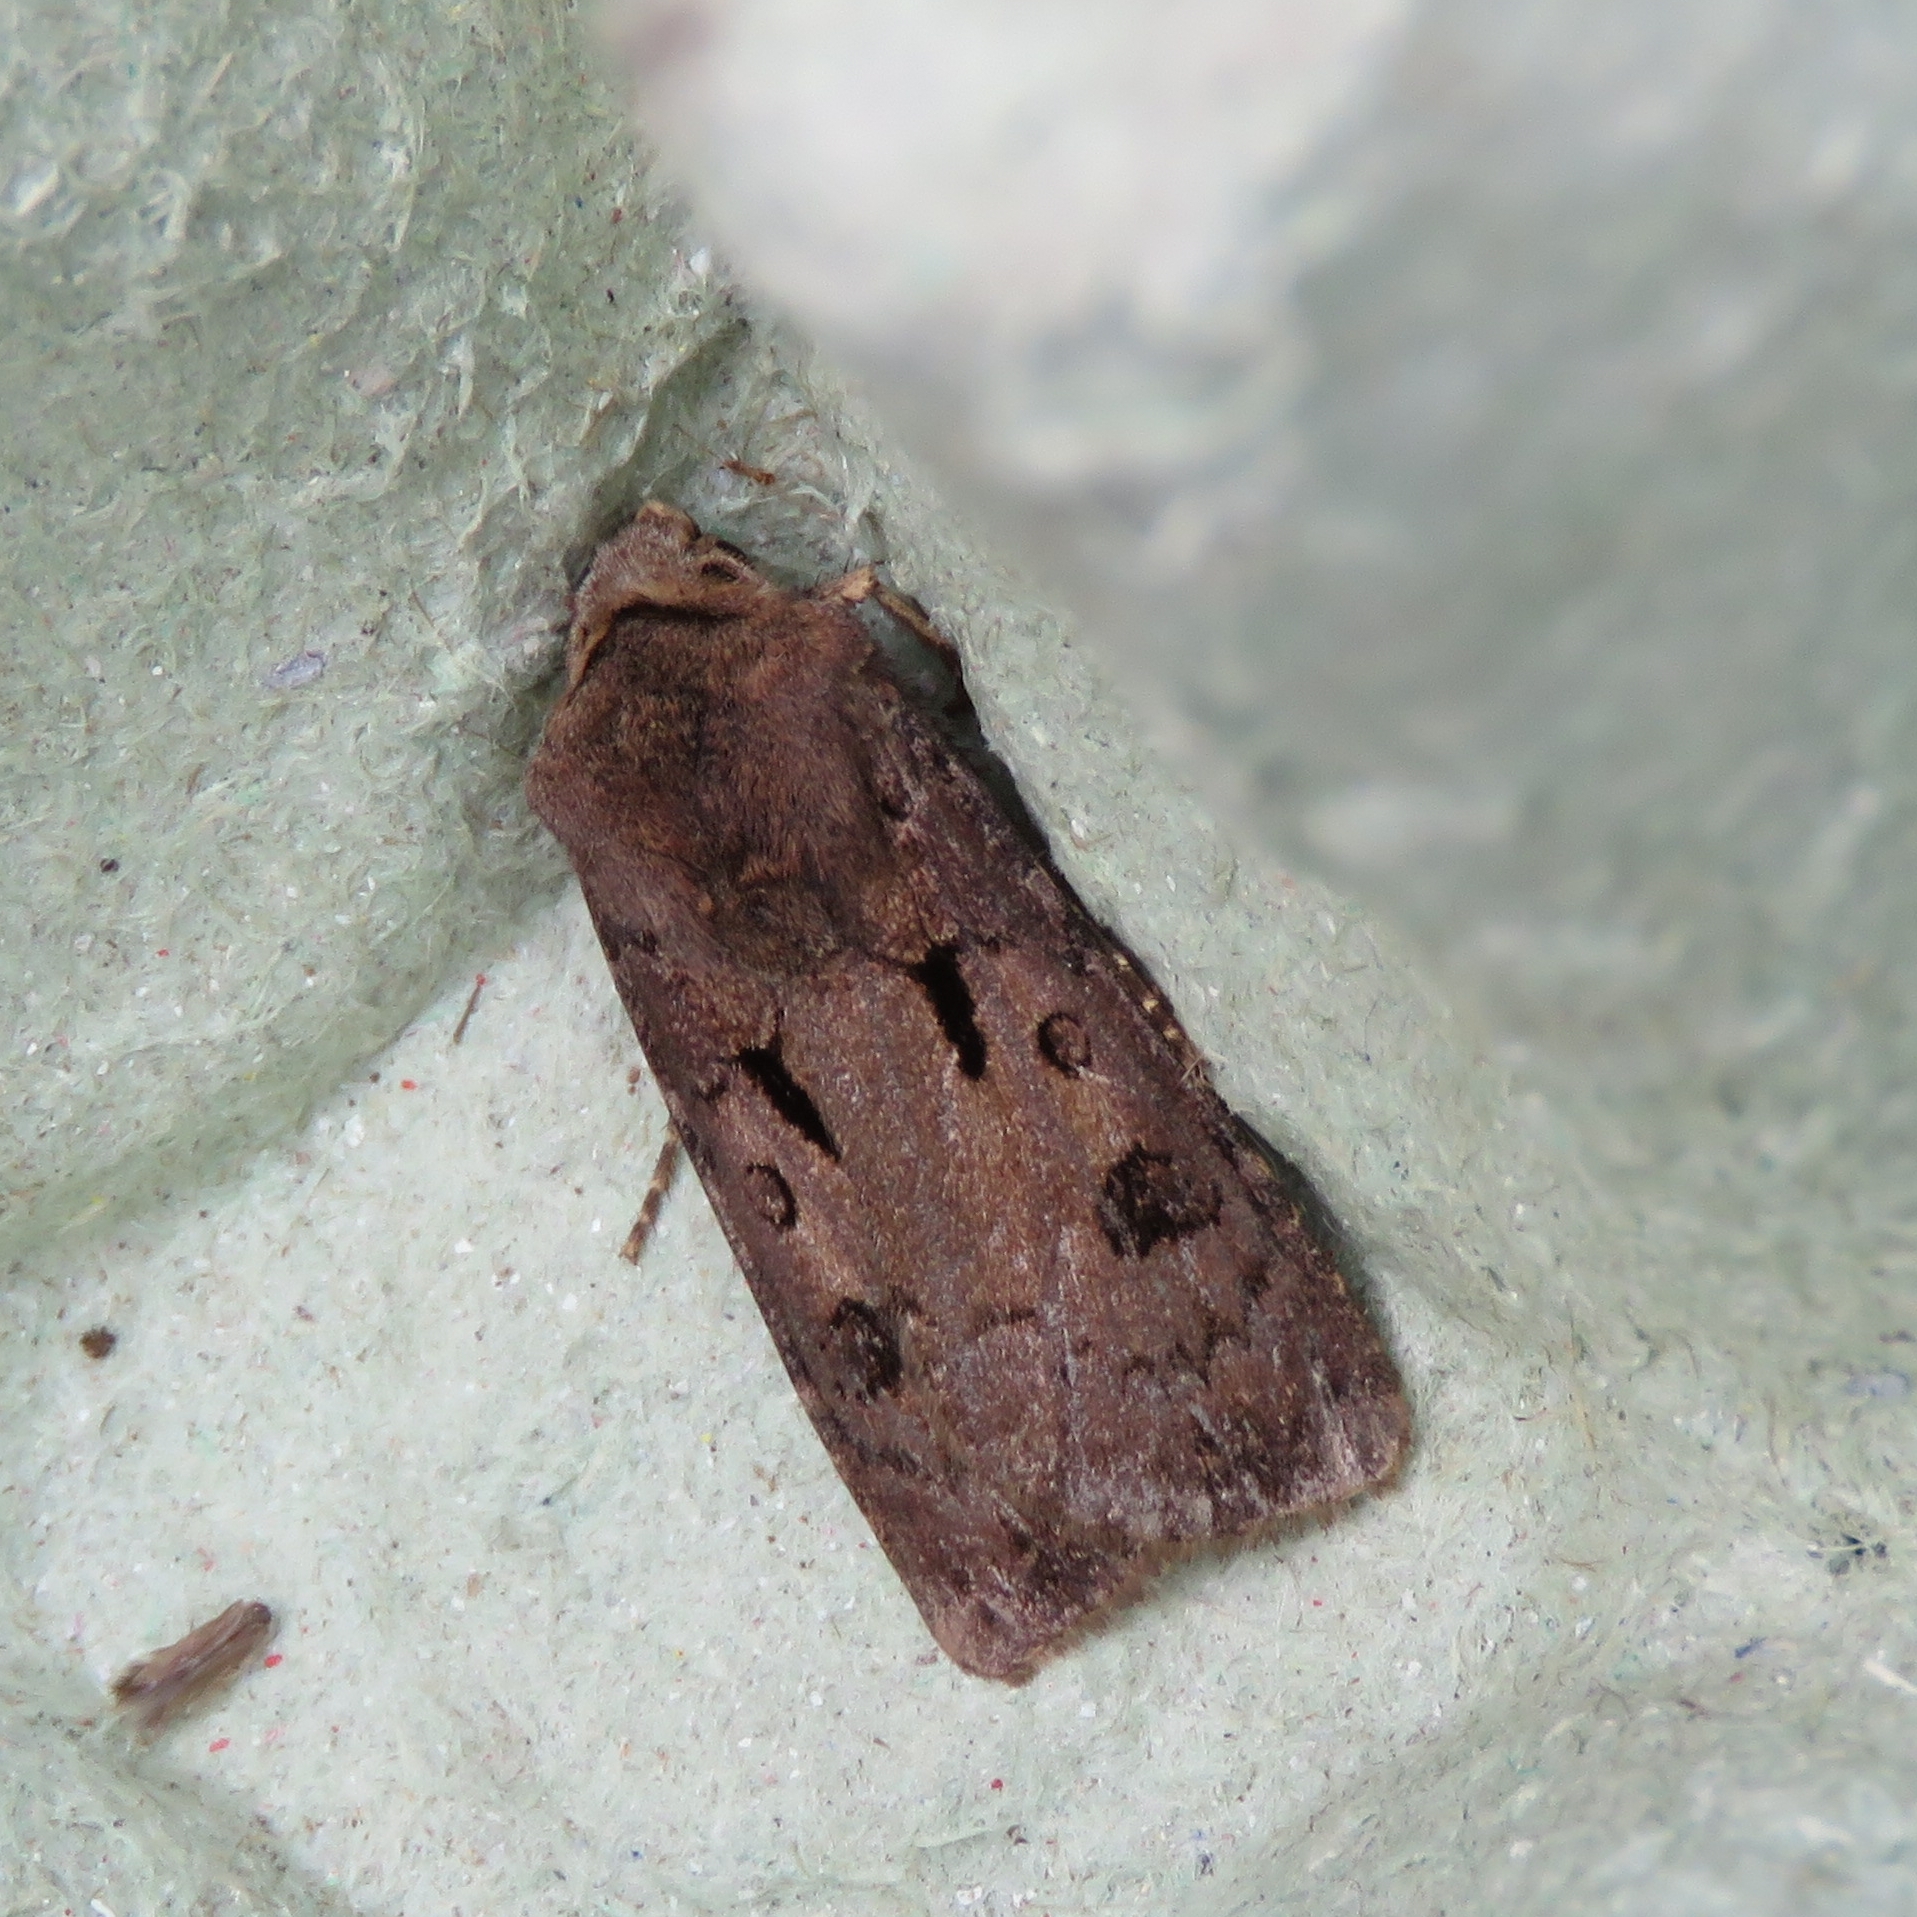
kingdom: Animalia
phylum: Arthropoda
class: Insecta
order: Lepidoptera
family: Noctuidae
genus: Agrotis
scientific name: Agrotis exclamationis
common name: Heart and dart
